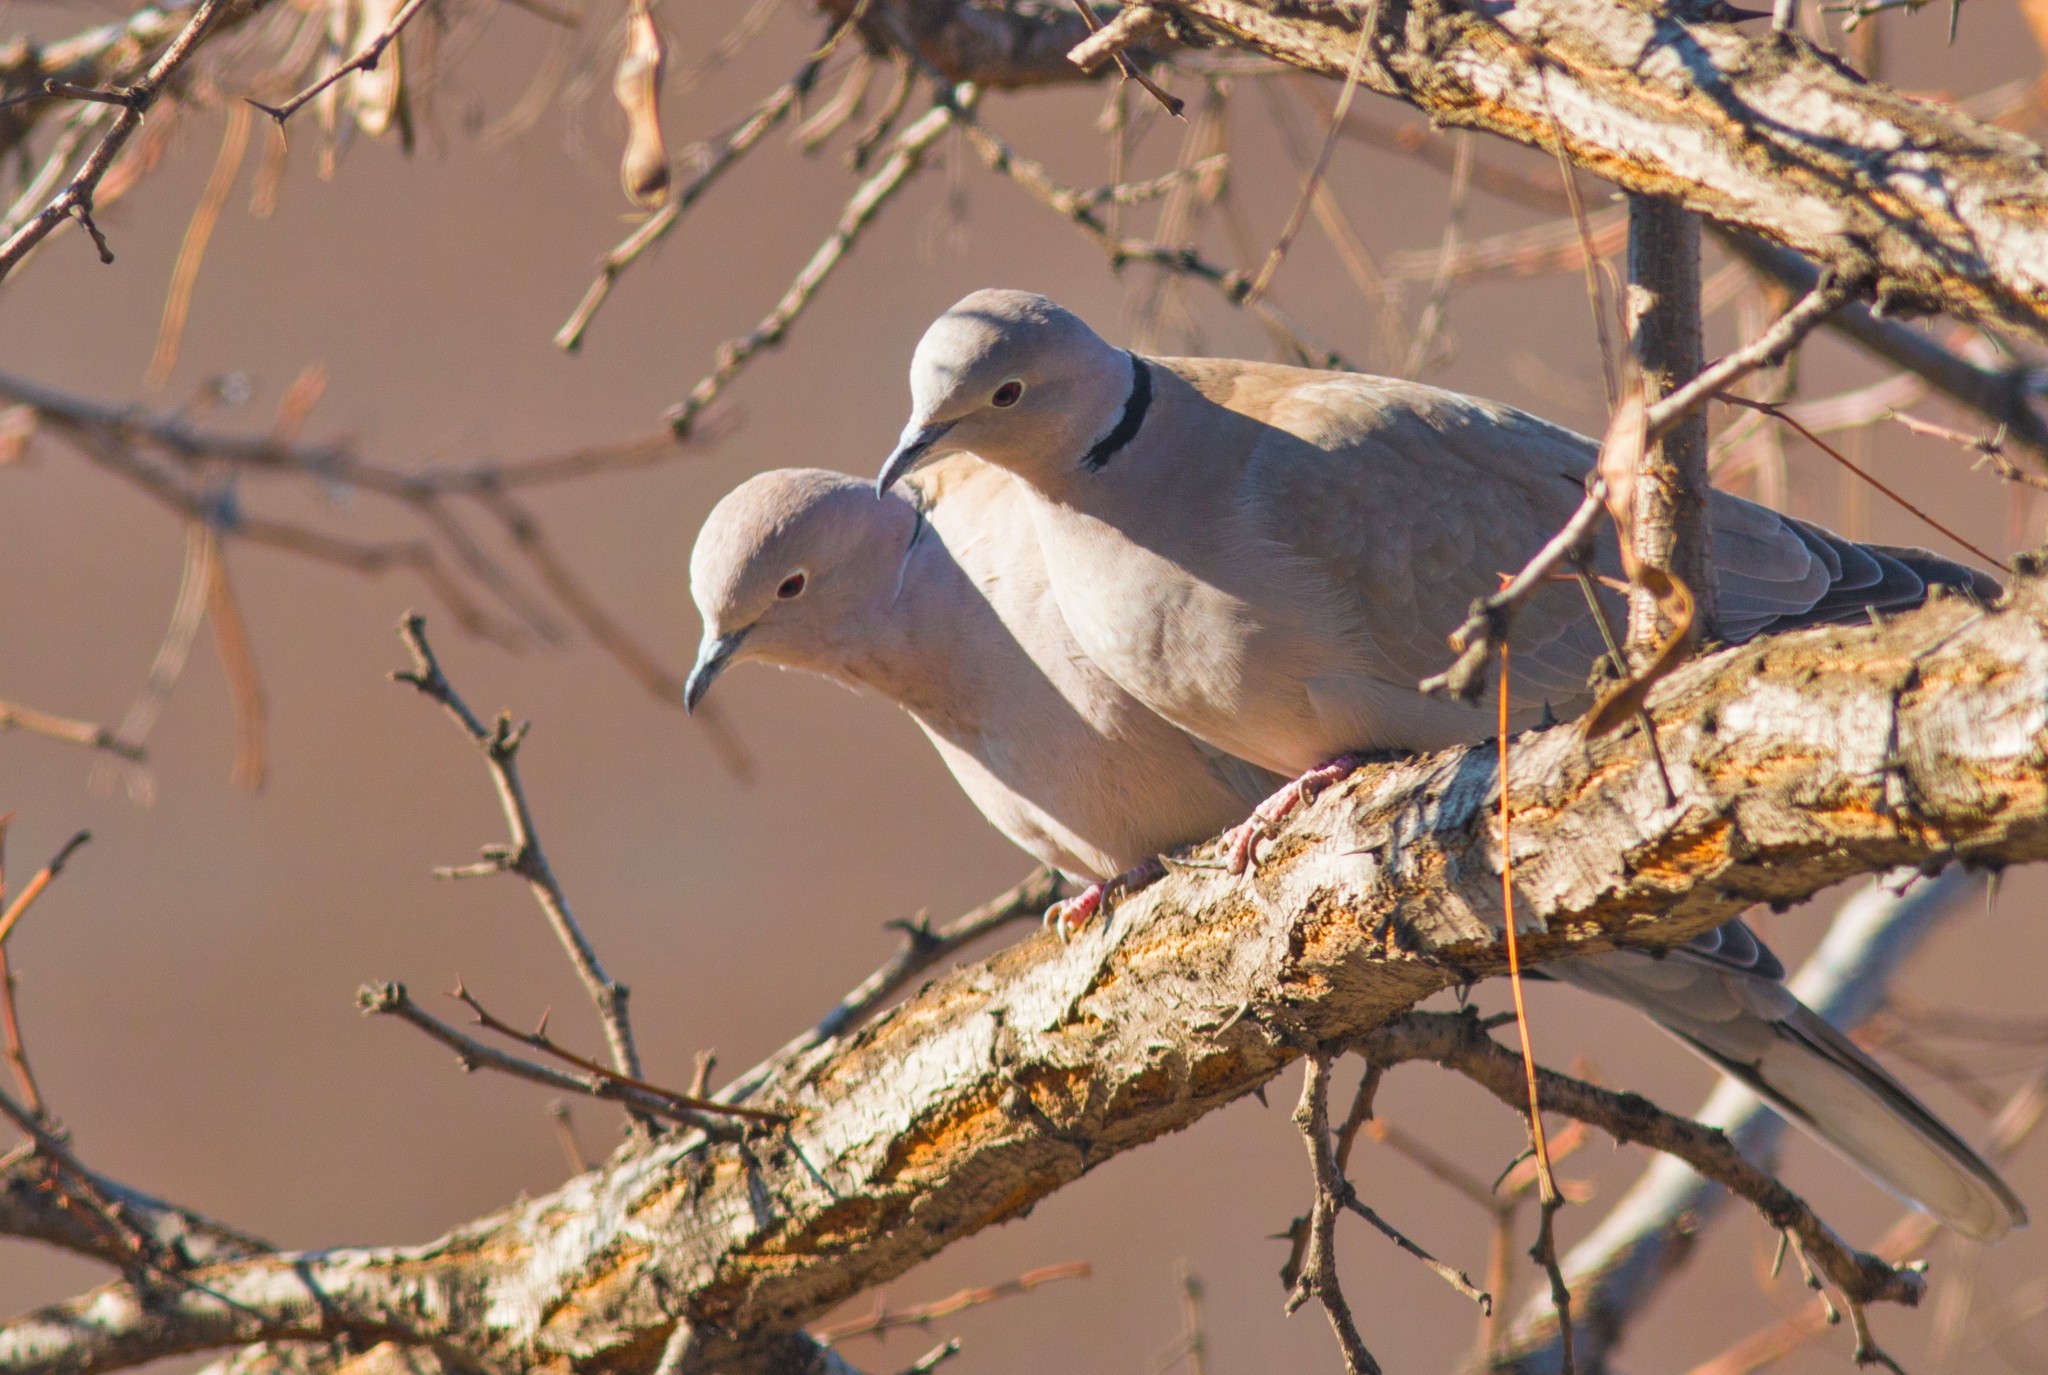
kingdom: Animalia
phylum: Chordata
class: Aves
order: Columbiformes
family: Columbidae
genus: Streptopelia
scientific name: Streptopelia decaocto
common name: Eurasian collared dove
